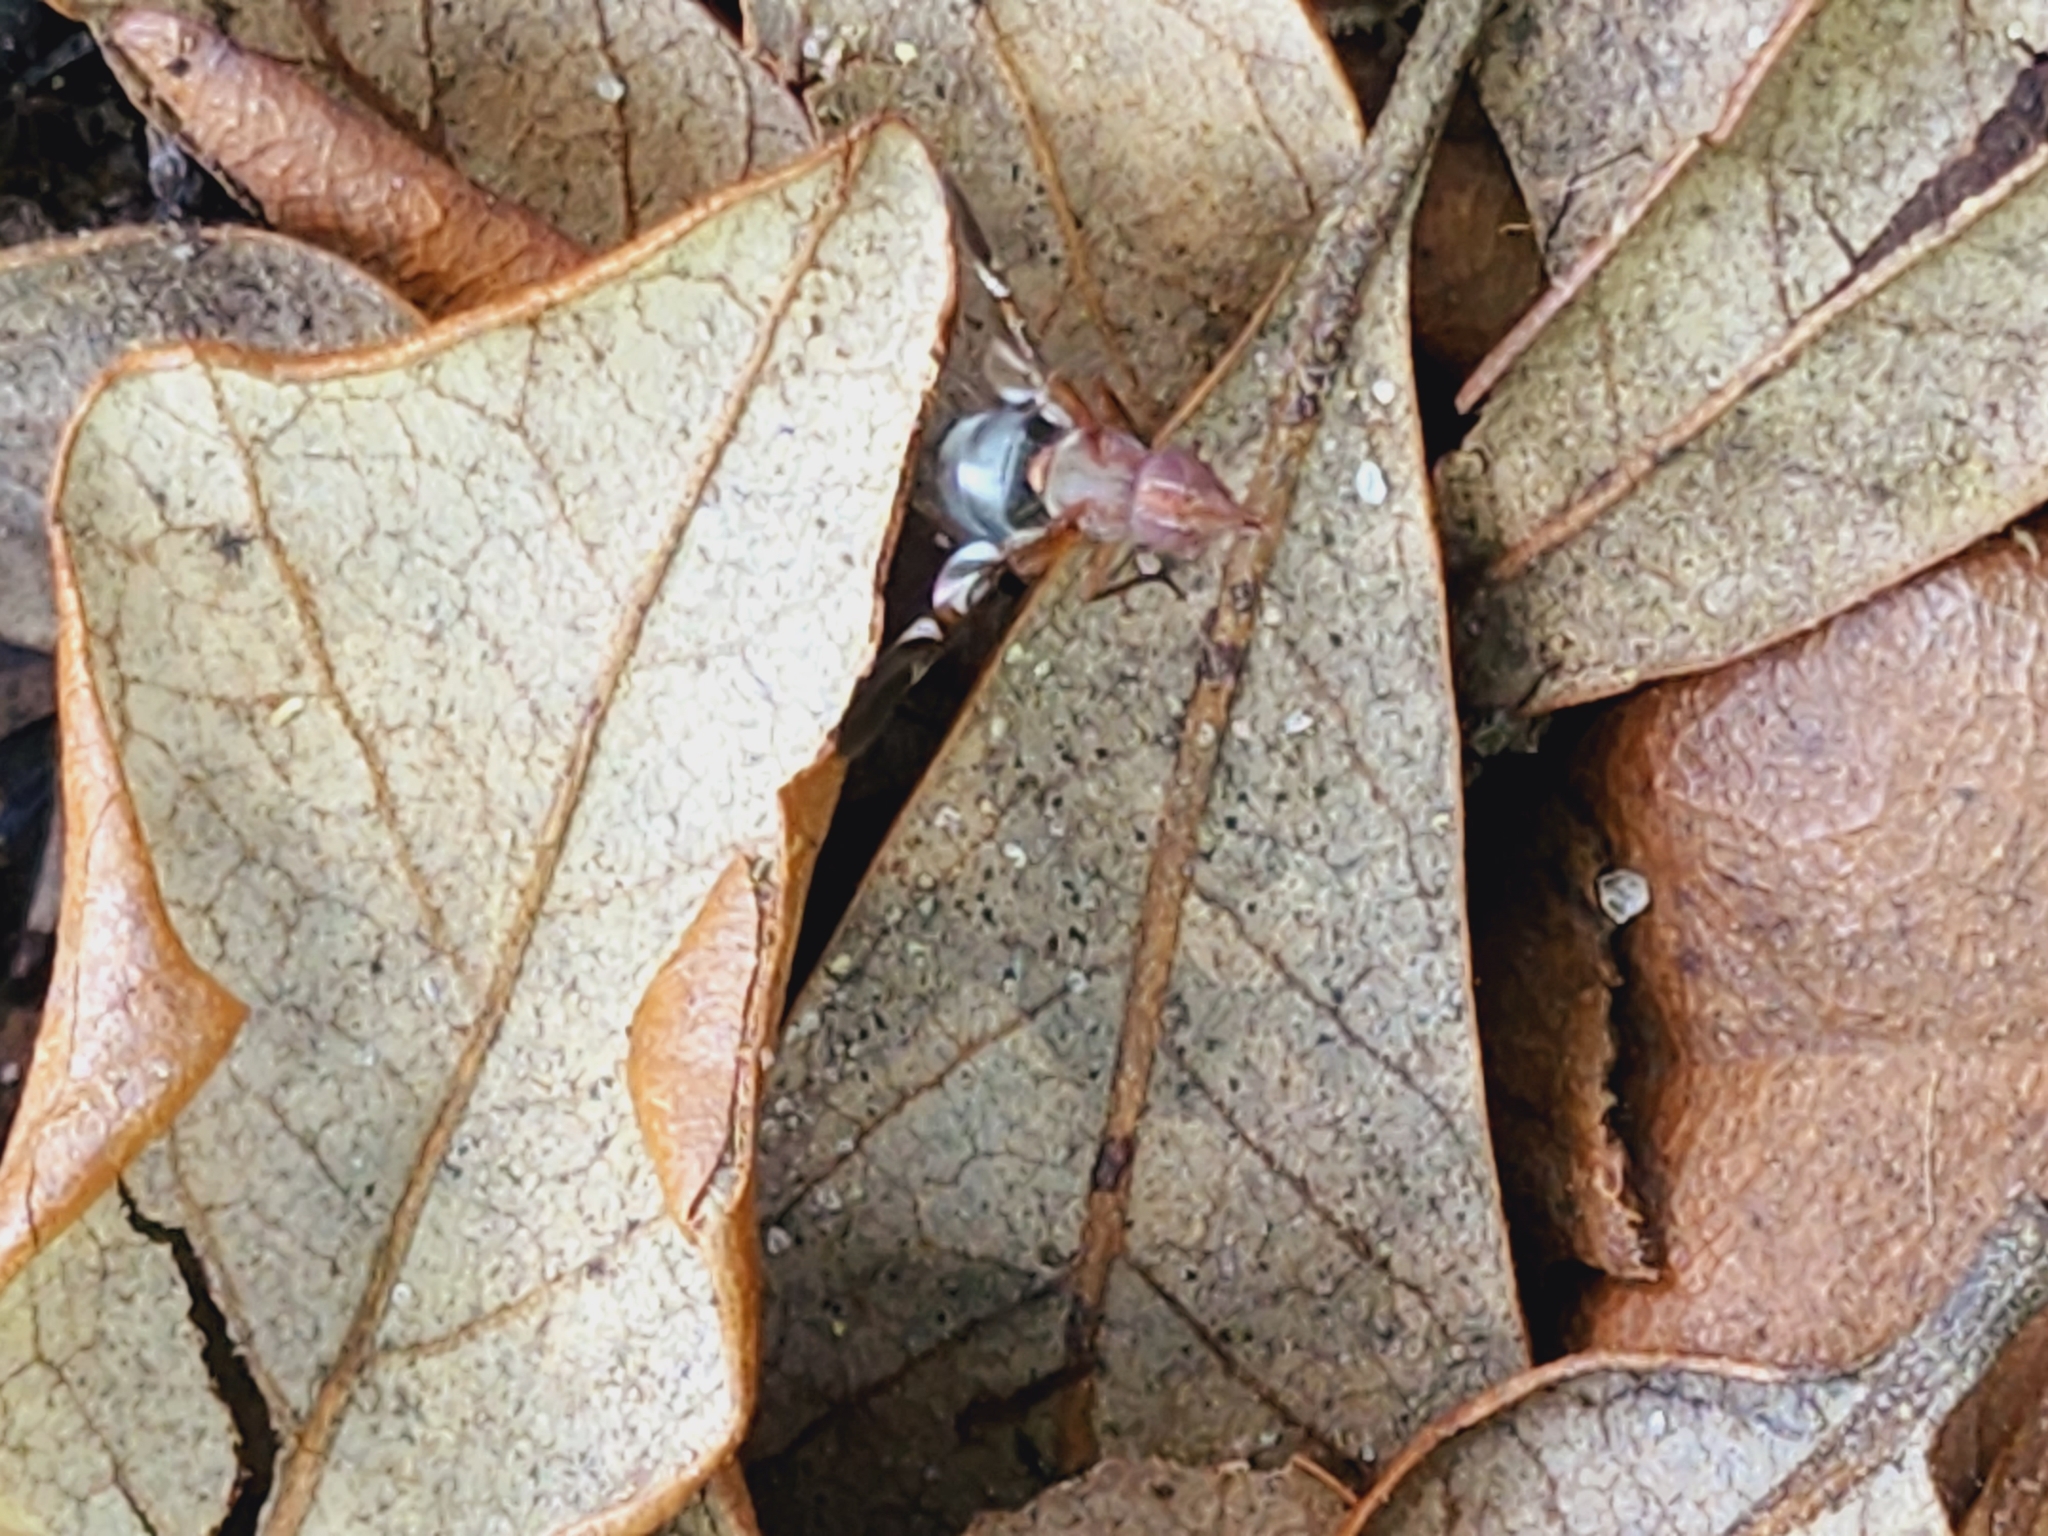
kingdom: Animalia
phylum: Arthropoda
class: Insecta
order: Diptera
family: Ulidiidae
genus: Delphinia
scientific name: Delphinia picta
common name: Common picture-winged fly
